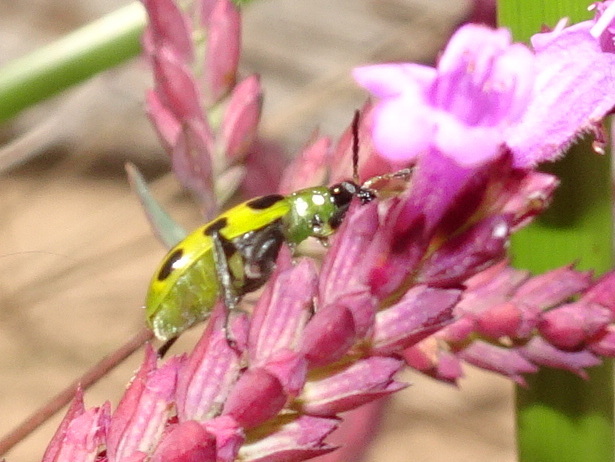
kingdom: Animalia
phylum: Arthropoda
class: Insecta
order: Coleoptera
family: Chrysomelidae
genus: Diabrotica
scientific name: Diabrotica undecimpunctata
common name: Spotted cucumber beetle
